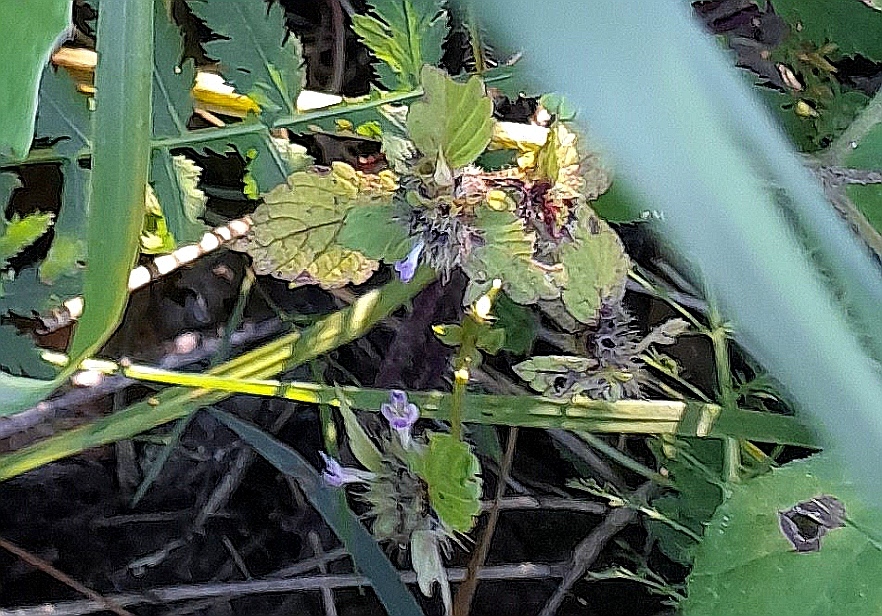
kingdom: Plantae
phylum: Tracheophyta
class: Magnoliopsida
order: Lamiales
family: Lamiaceae
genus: Galeopsis
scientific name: Galeopsis bifida
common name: Bifid hemp-nettle
